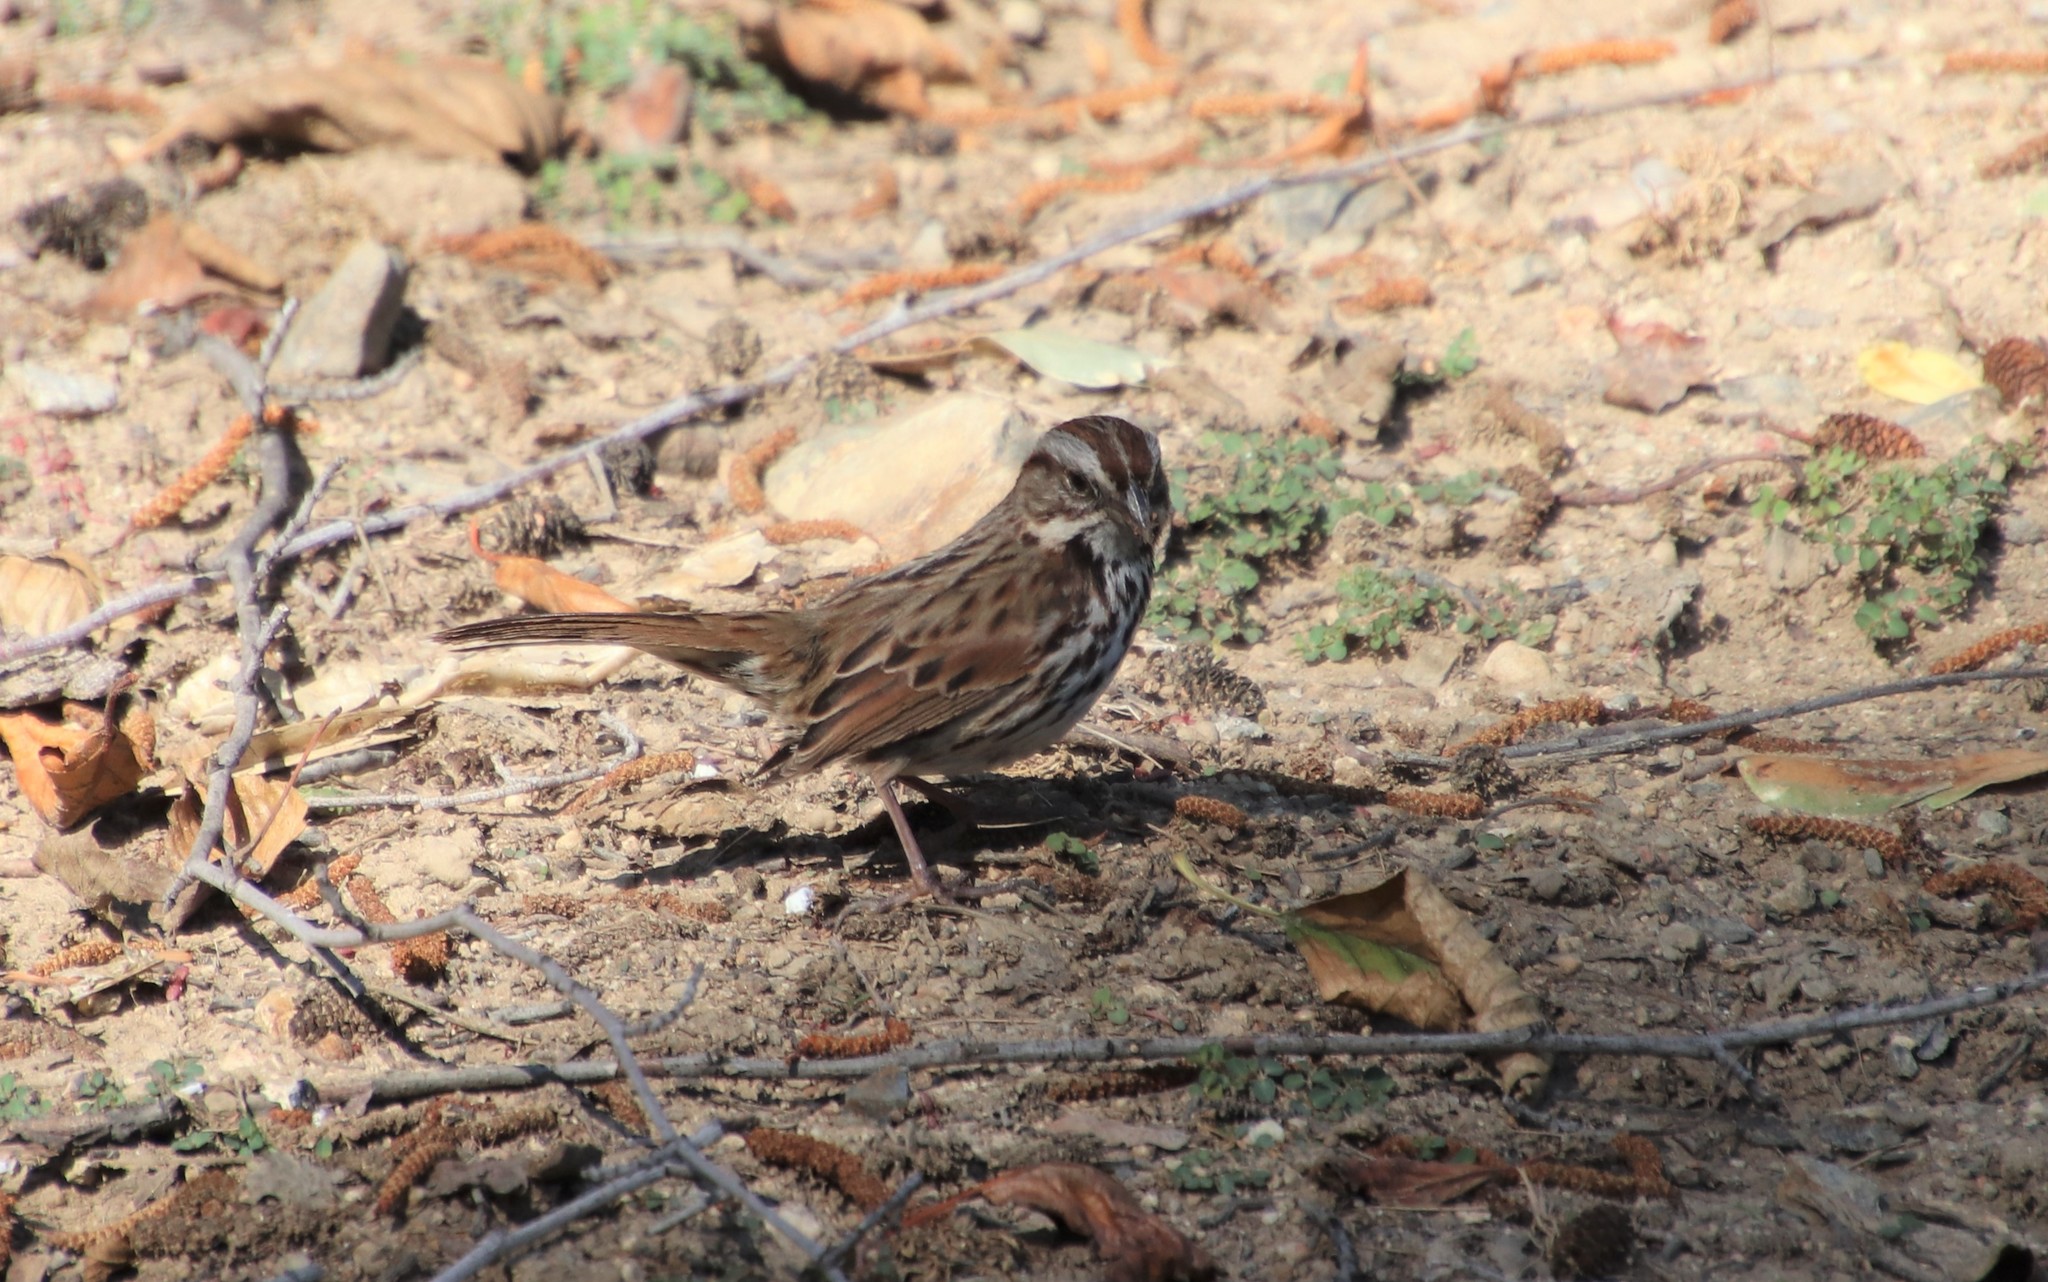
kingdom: Animalia
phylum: Chordata
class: Aves
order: Passeriformes
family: Passerellidae
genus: Melospiza
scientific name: Melospiza melodia
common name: Song sparrow
